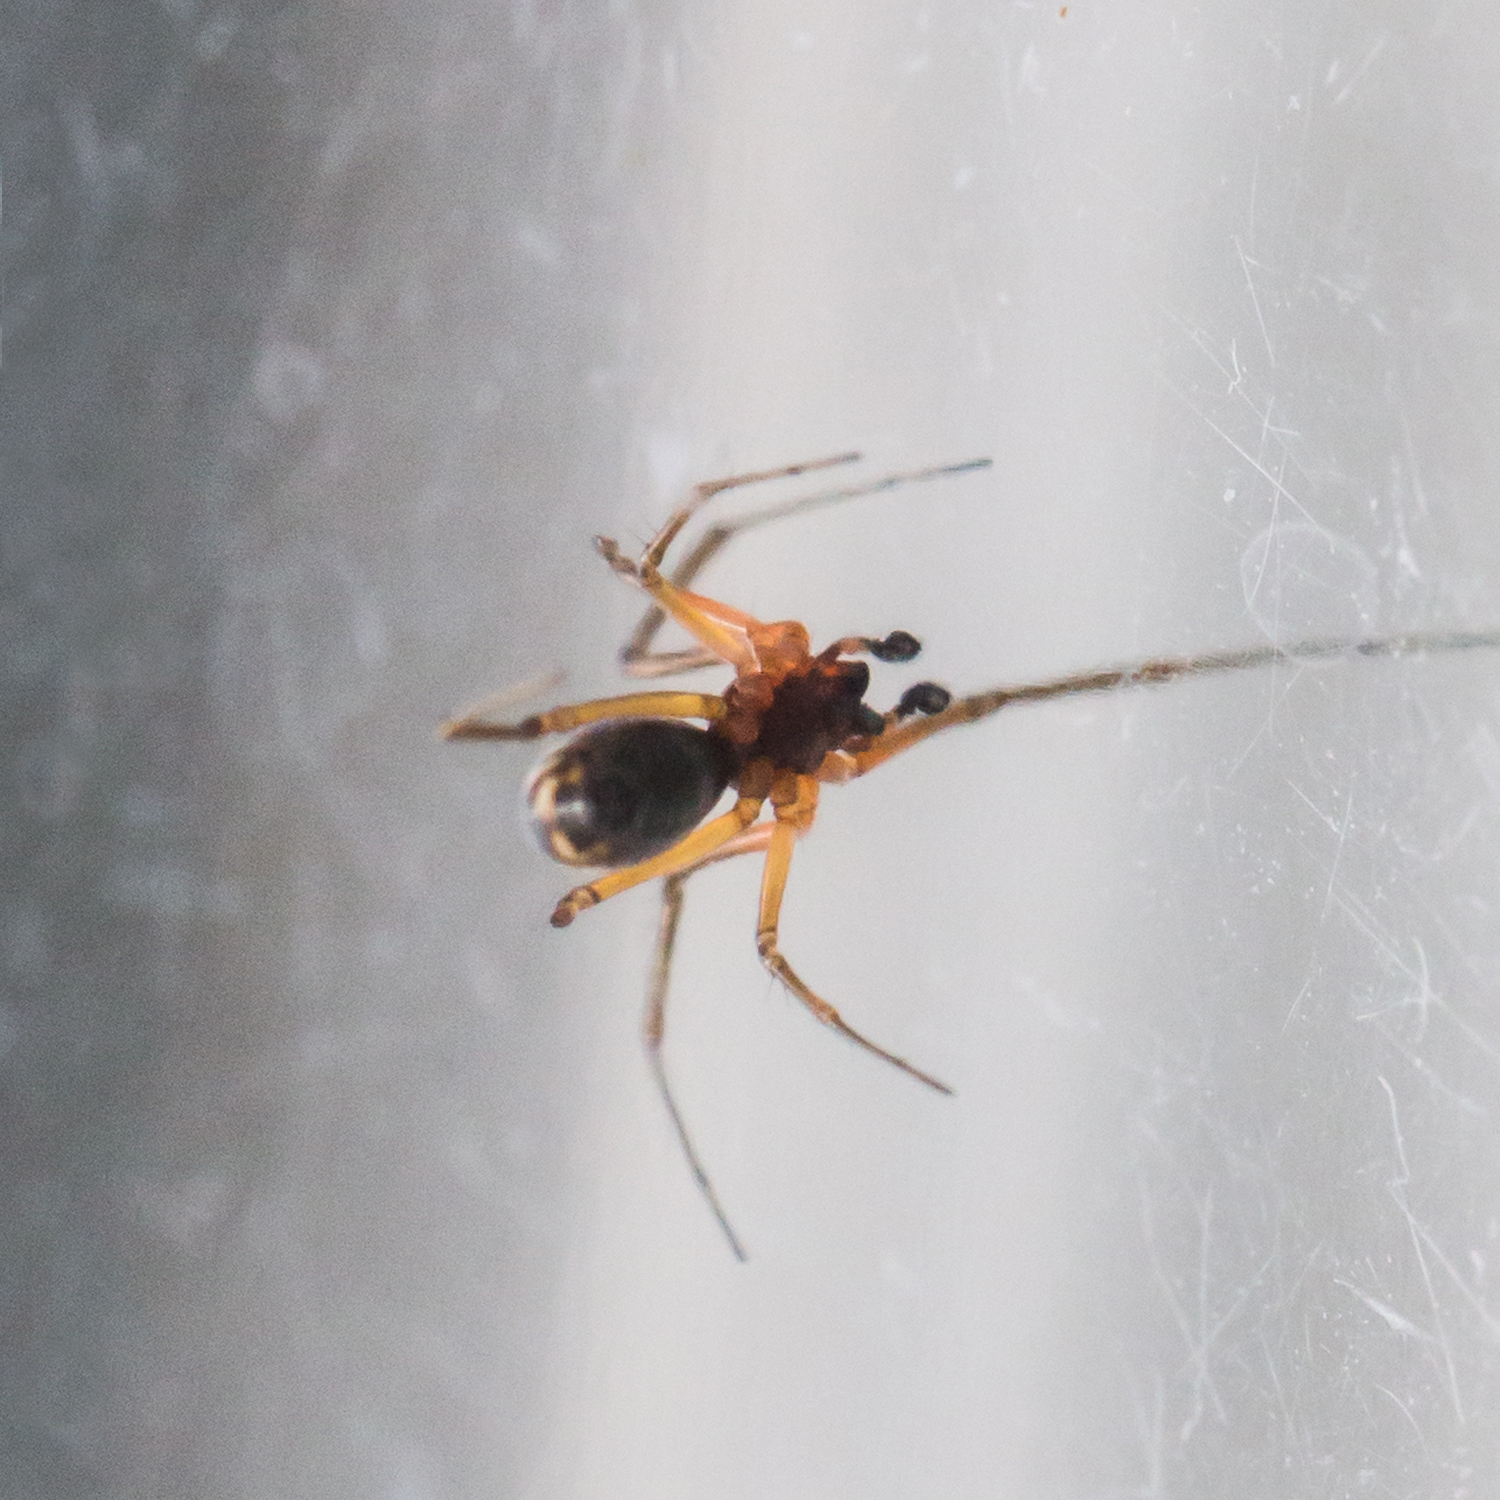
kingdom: Animalia
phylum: Arthropoda
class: Arachnida
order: Araneae
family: Linyphiidae
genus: Frontinella
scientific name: Frontinella pyramitela
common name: Bowl-and-doily spider
